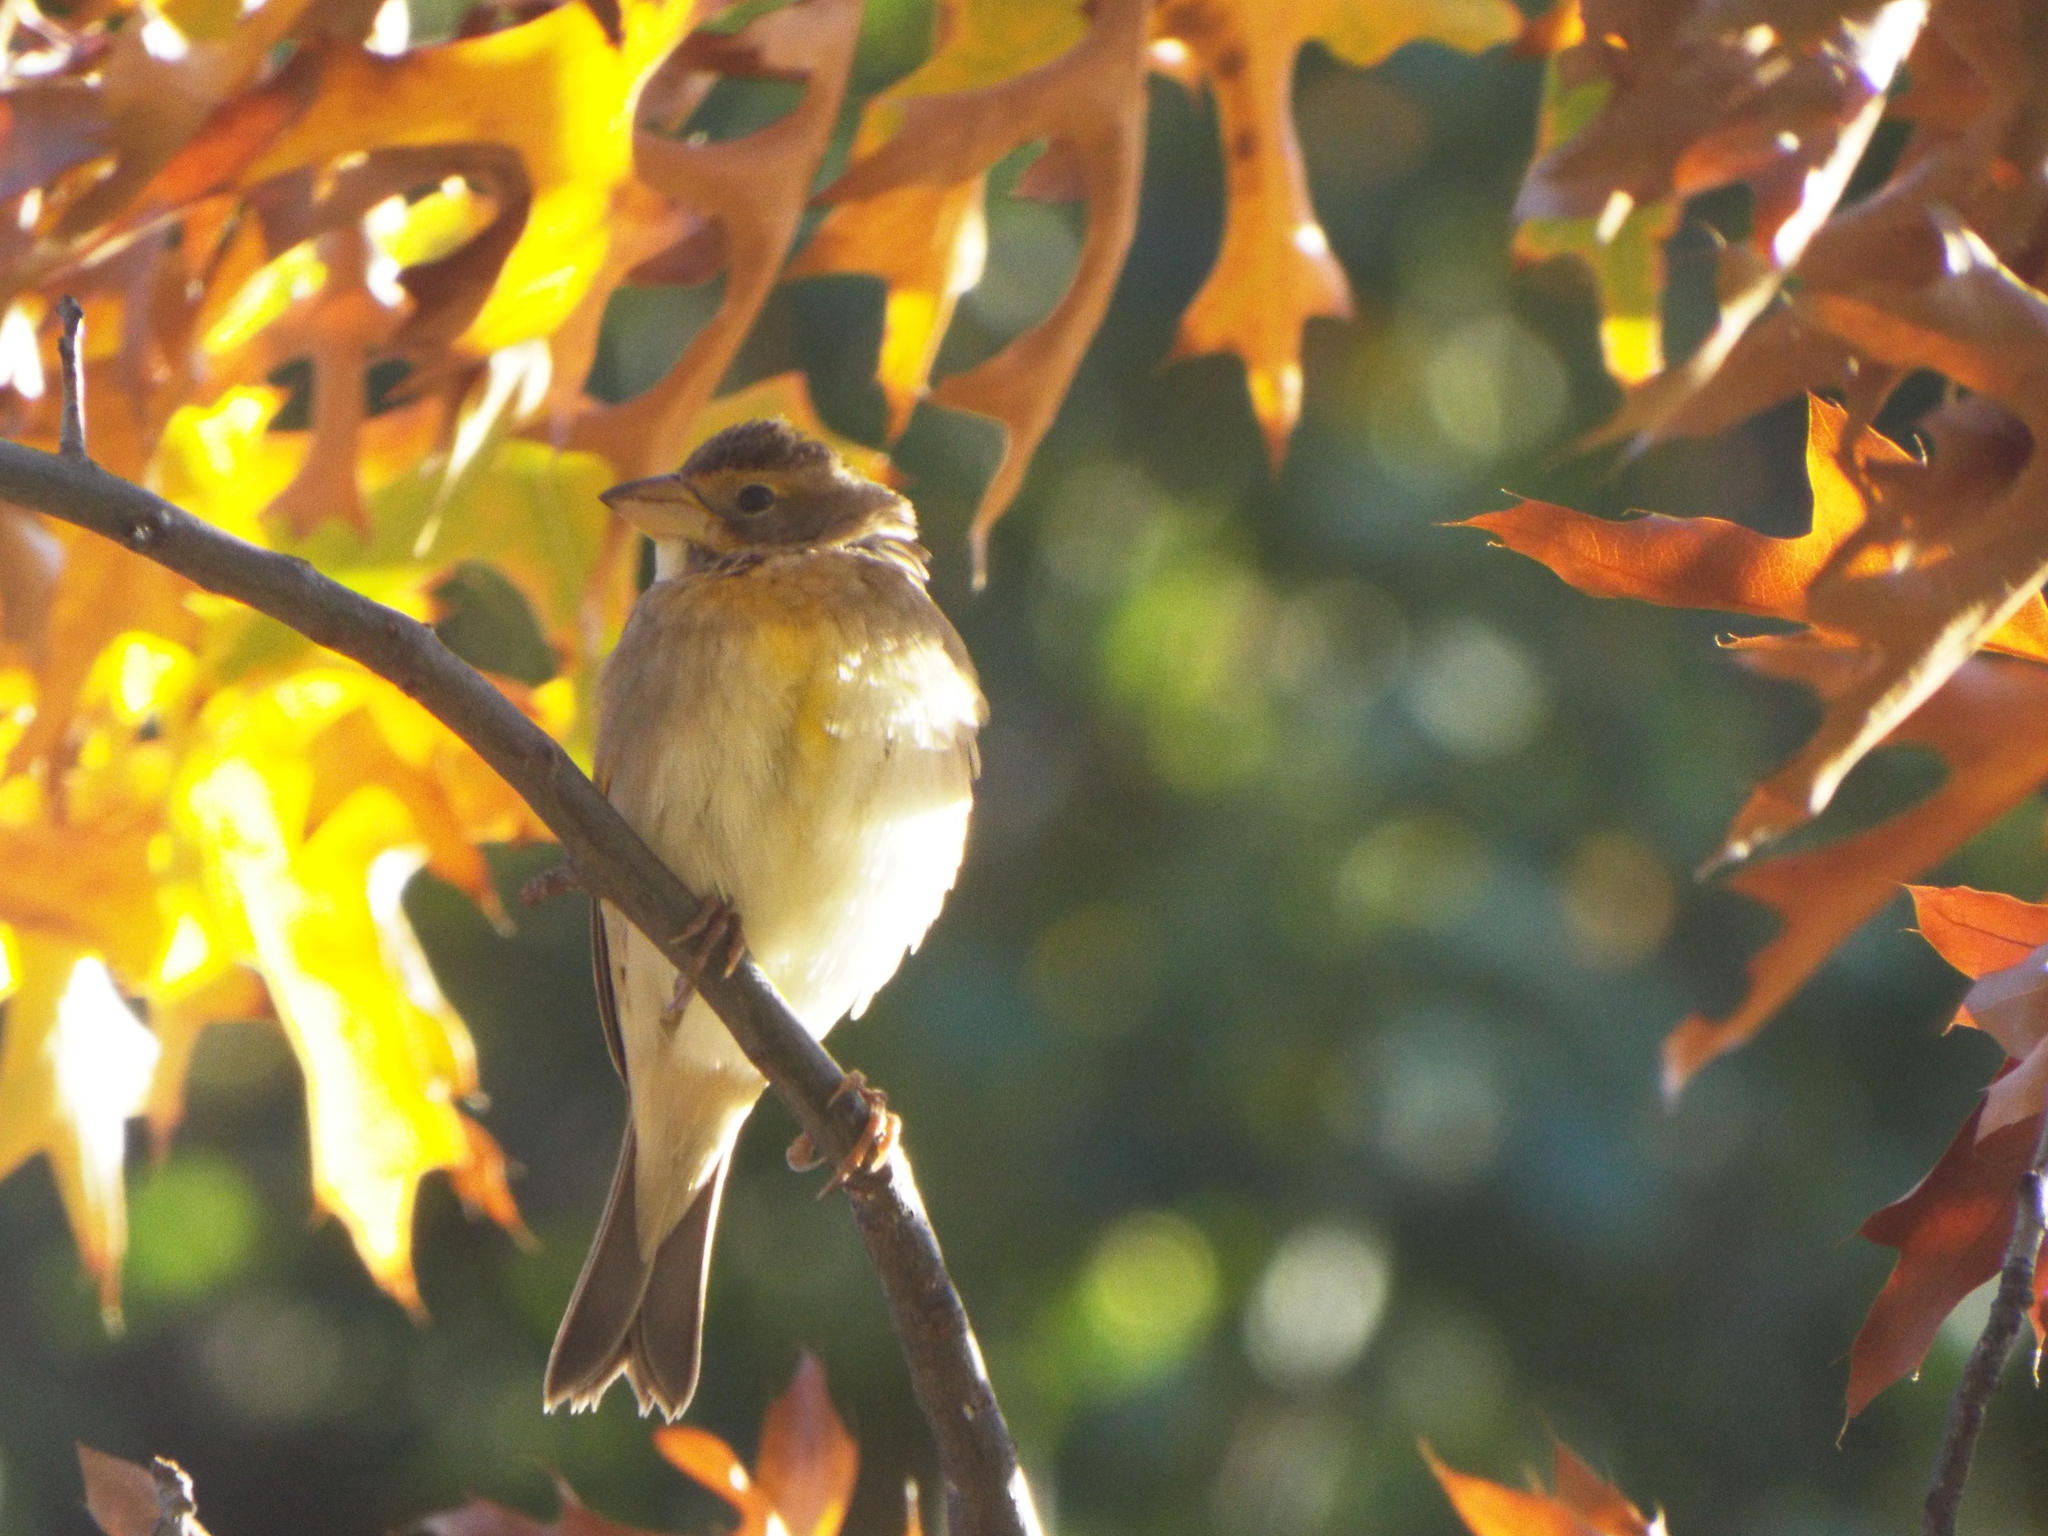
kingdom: Animalia
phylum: Chordata
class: Aves
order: Passeriformes
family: Cardinalidae
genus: Spiza
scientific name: Spiza americana
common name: Dickcissel
